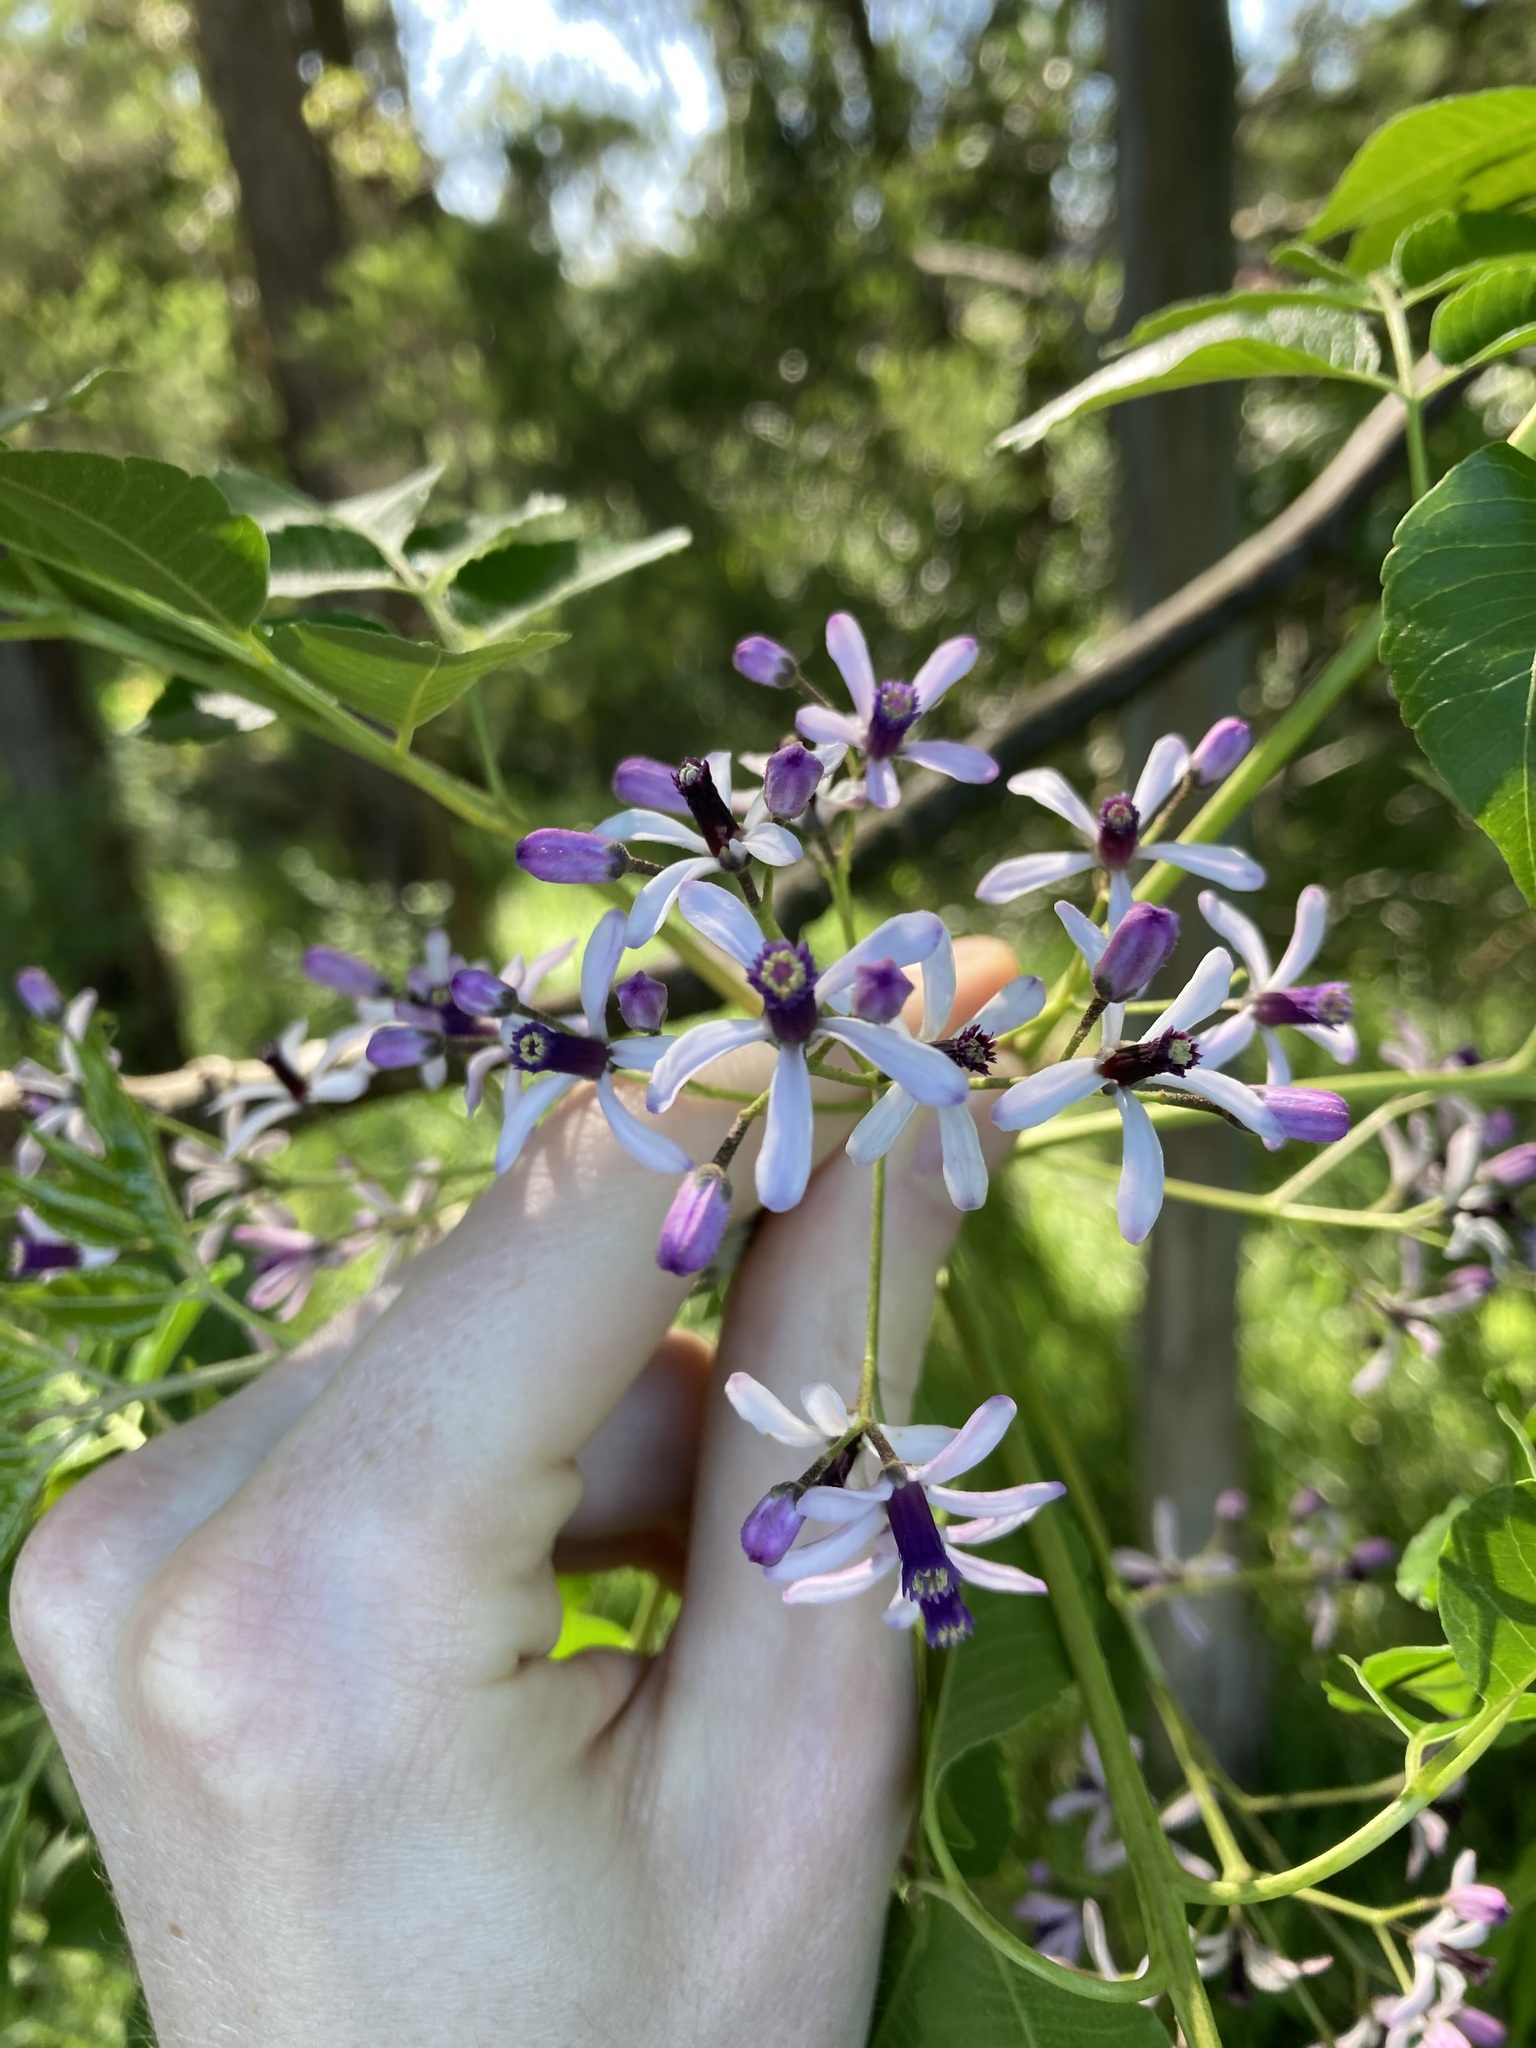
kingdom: Plantae
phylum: Tracheophyta
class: Magnoliopsida
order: Sapindales
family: Meliaceae
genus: Melia
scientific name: Melia azedarach
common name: Chinaberrytree
